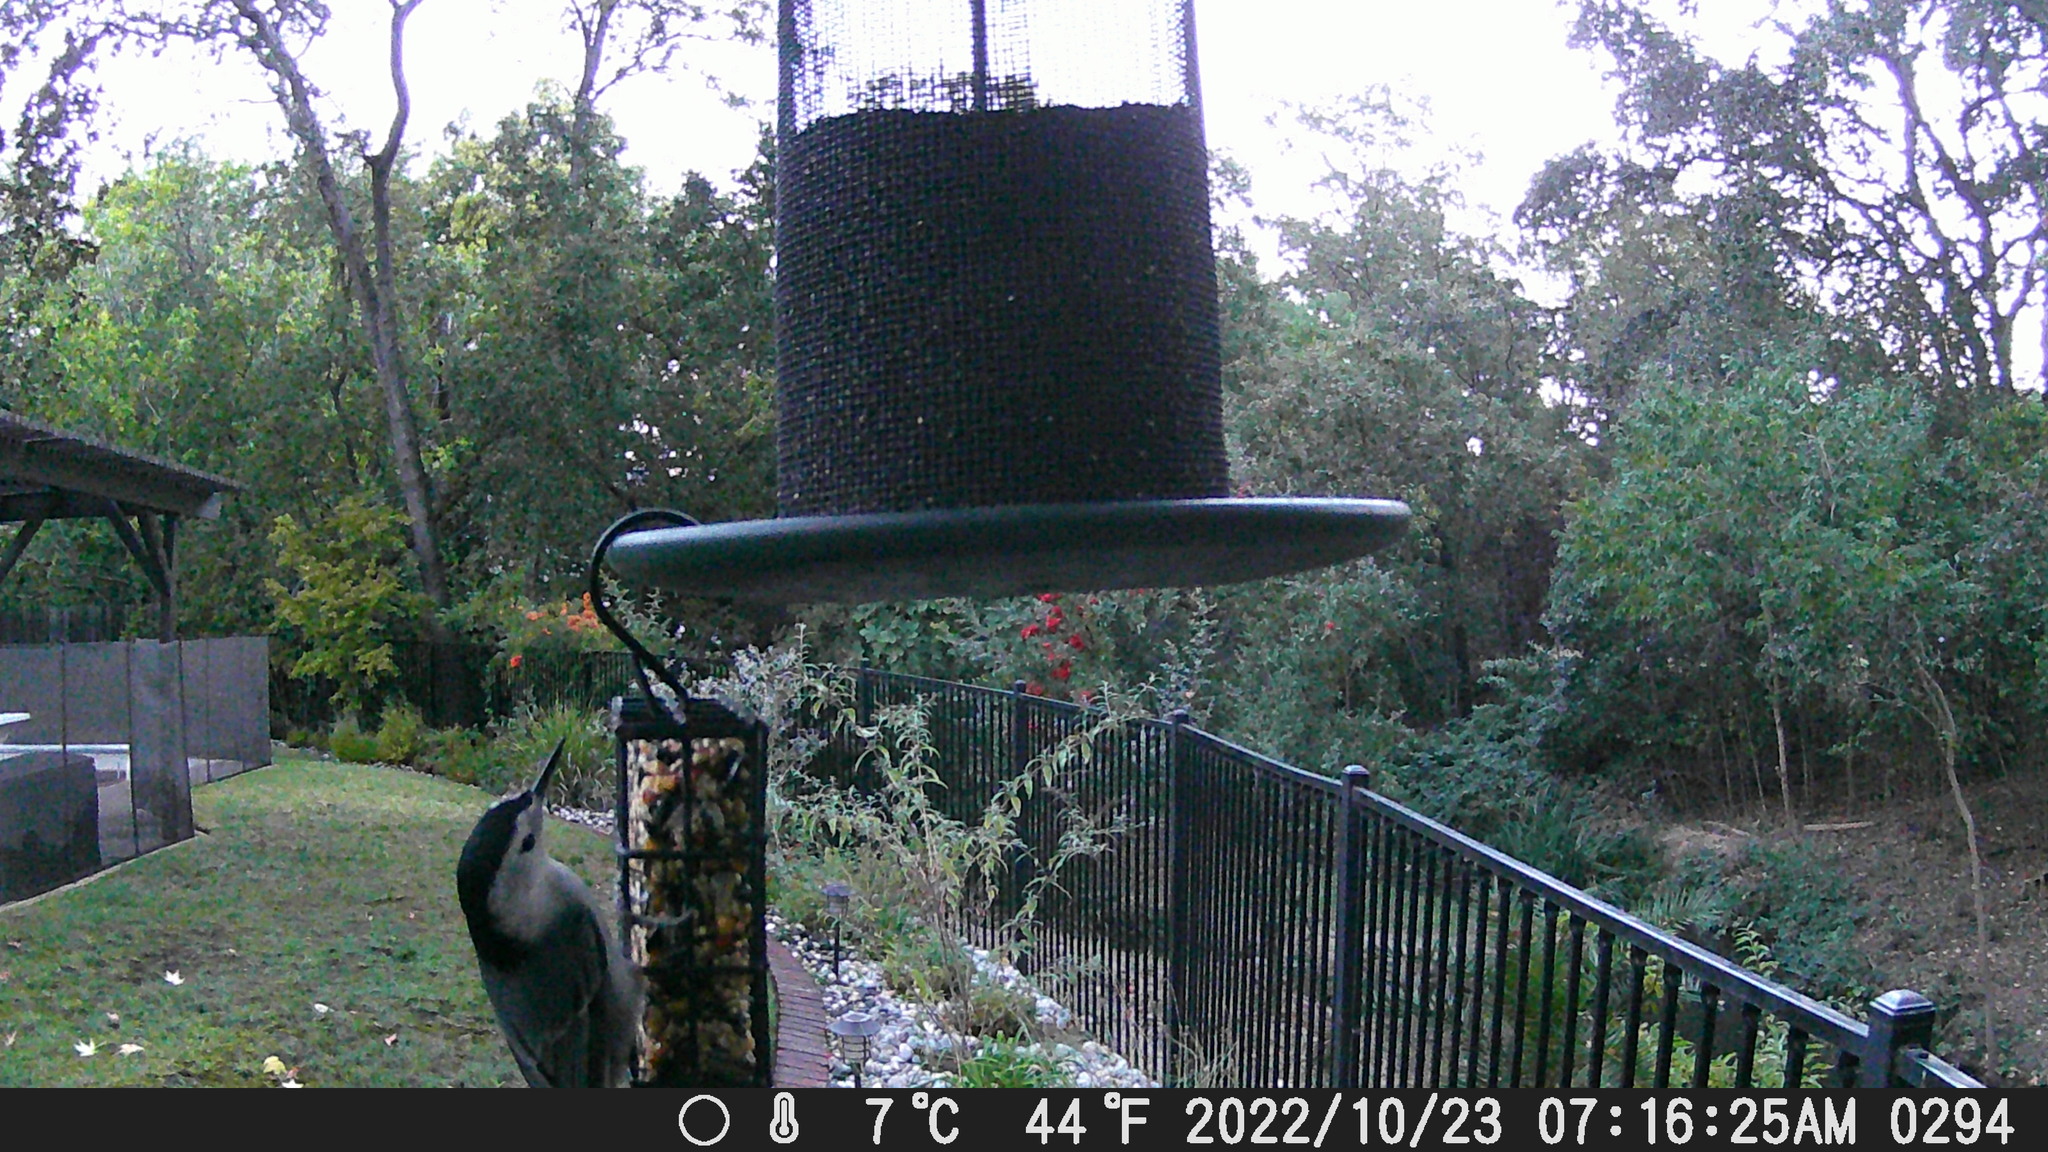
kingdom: Animalia
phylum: Chordata
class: Aves
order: Passeriformes
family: Sittidae
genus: Sitta
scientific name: Sitta carolinensis
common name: White-breasted nuthatch
